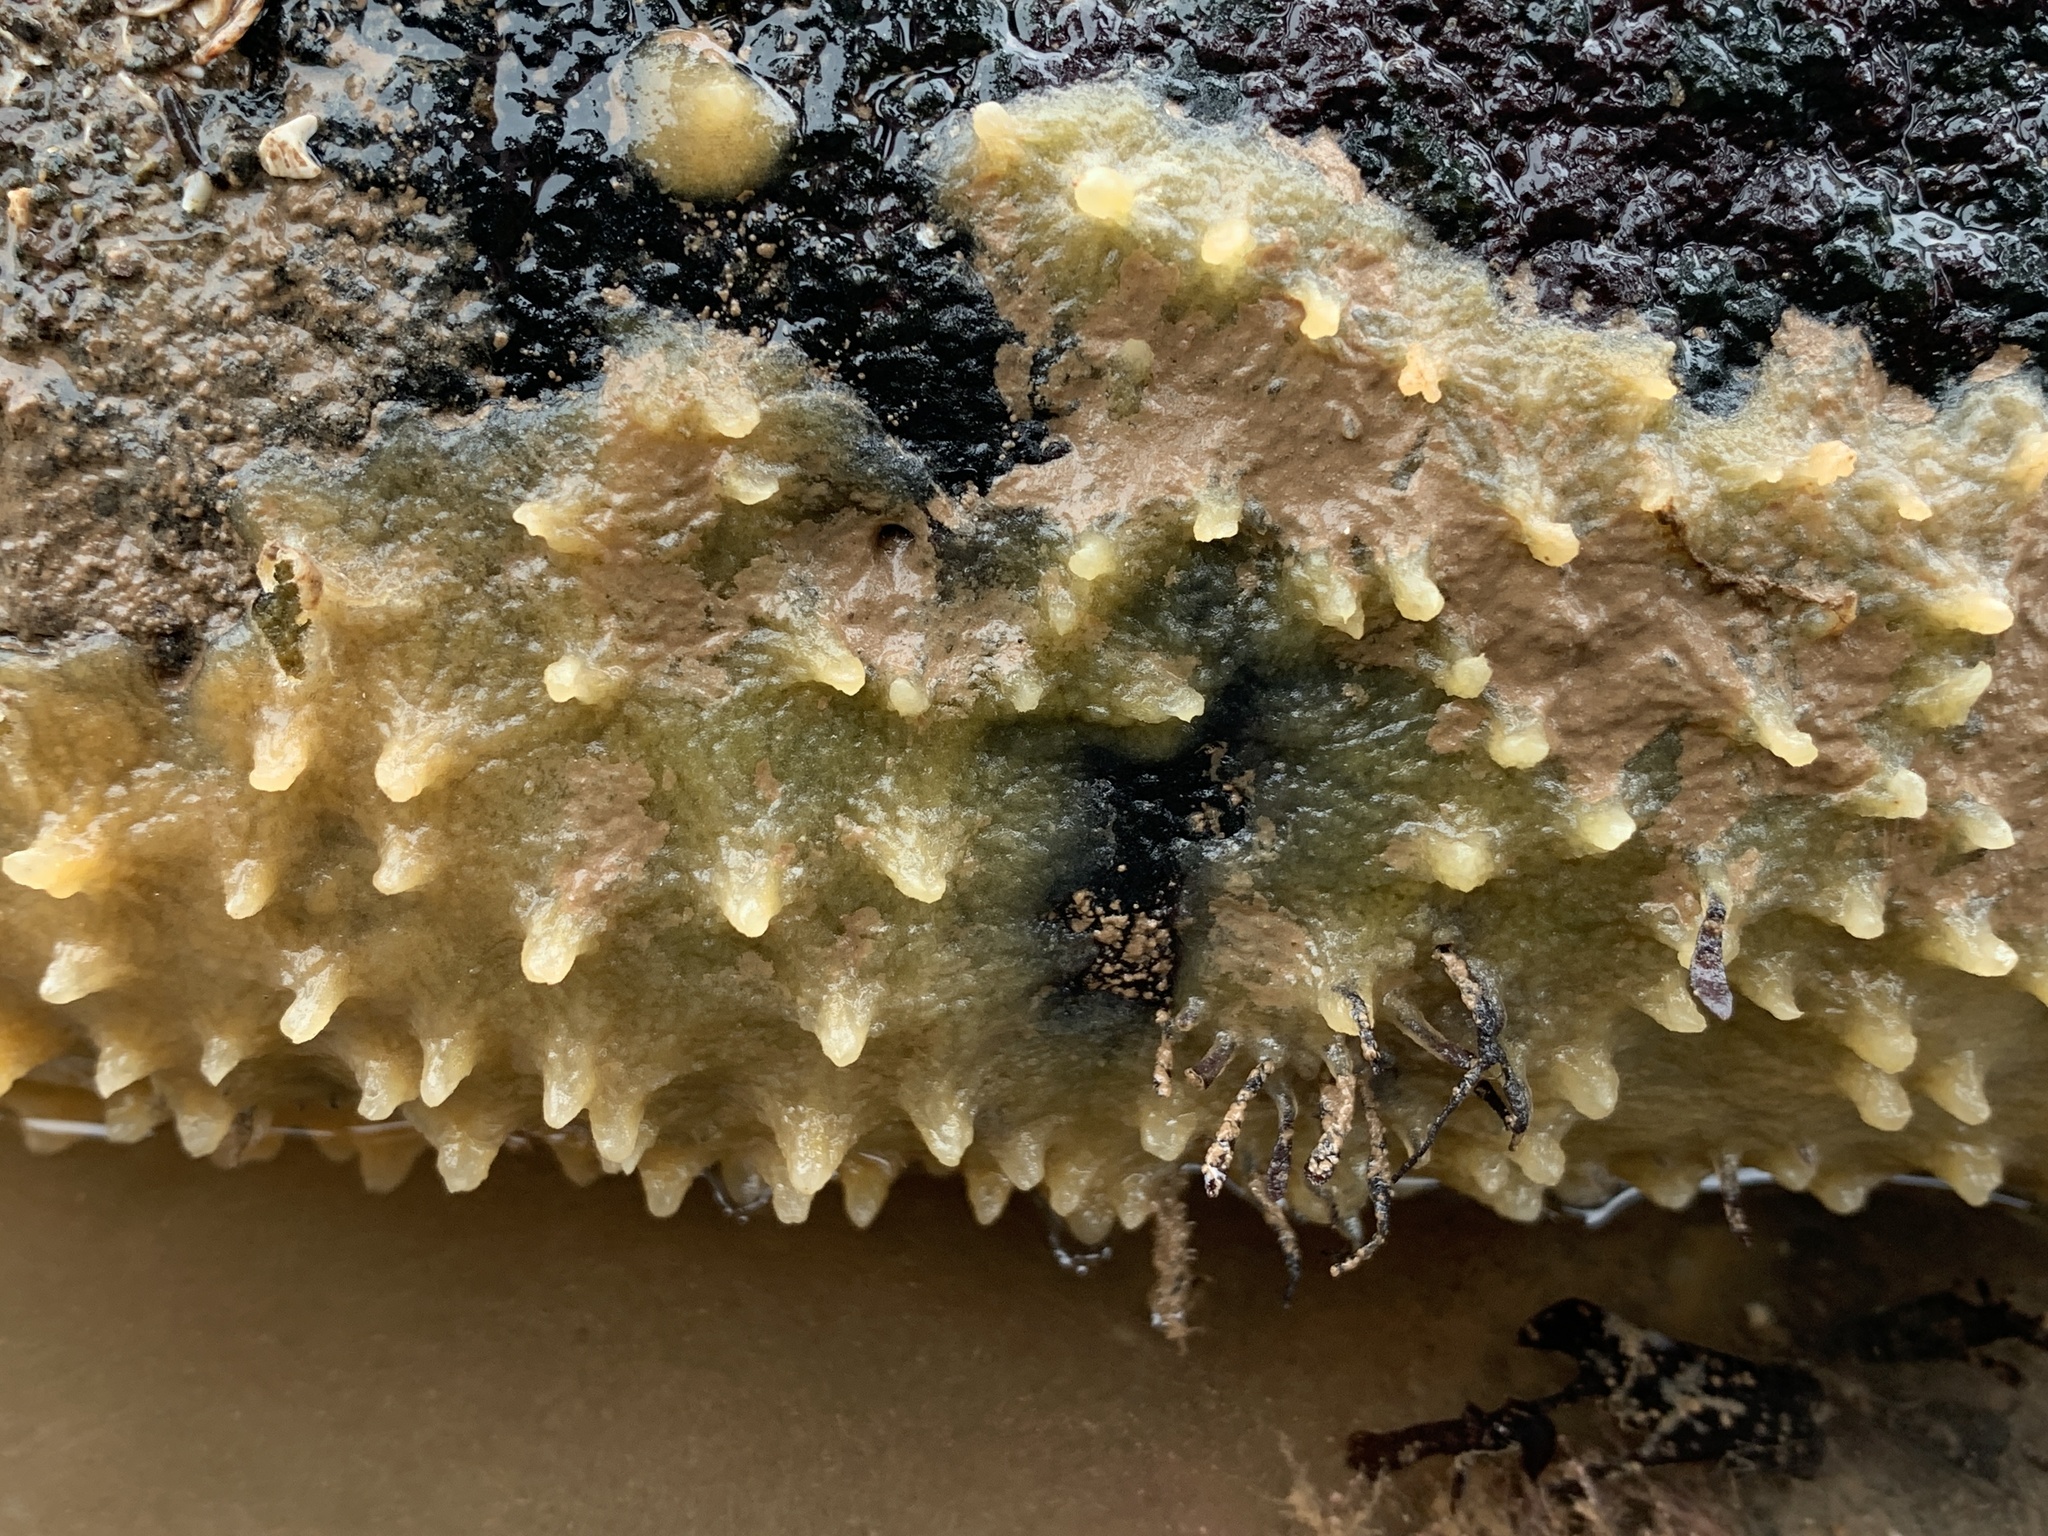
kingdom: Animalia
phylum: Porifera
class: Demospongiae
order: Suberitida
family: Halichondriidae
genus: Halichondria
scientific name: Halichondria panicea
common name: Breadcrumb sponge
